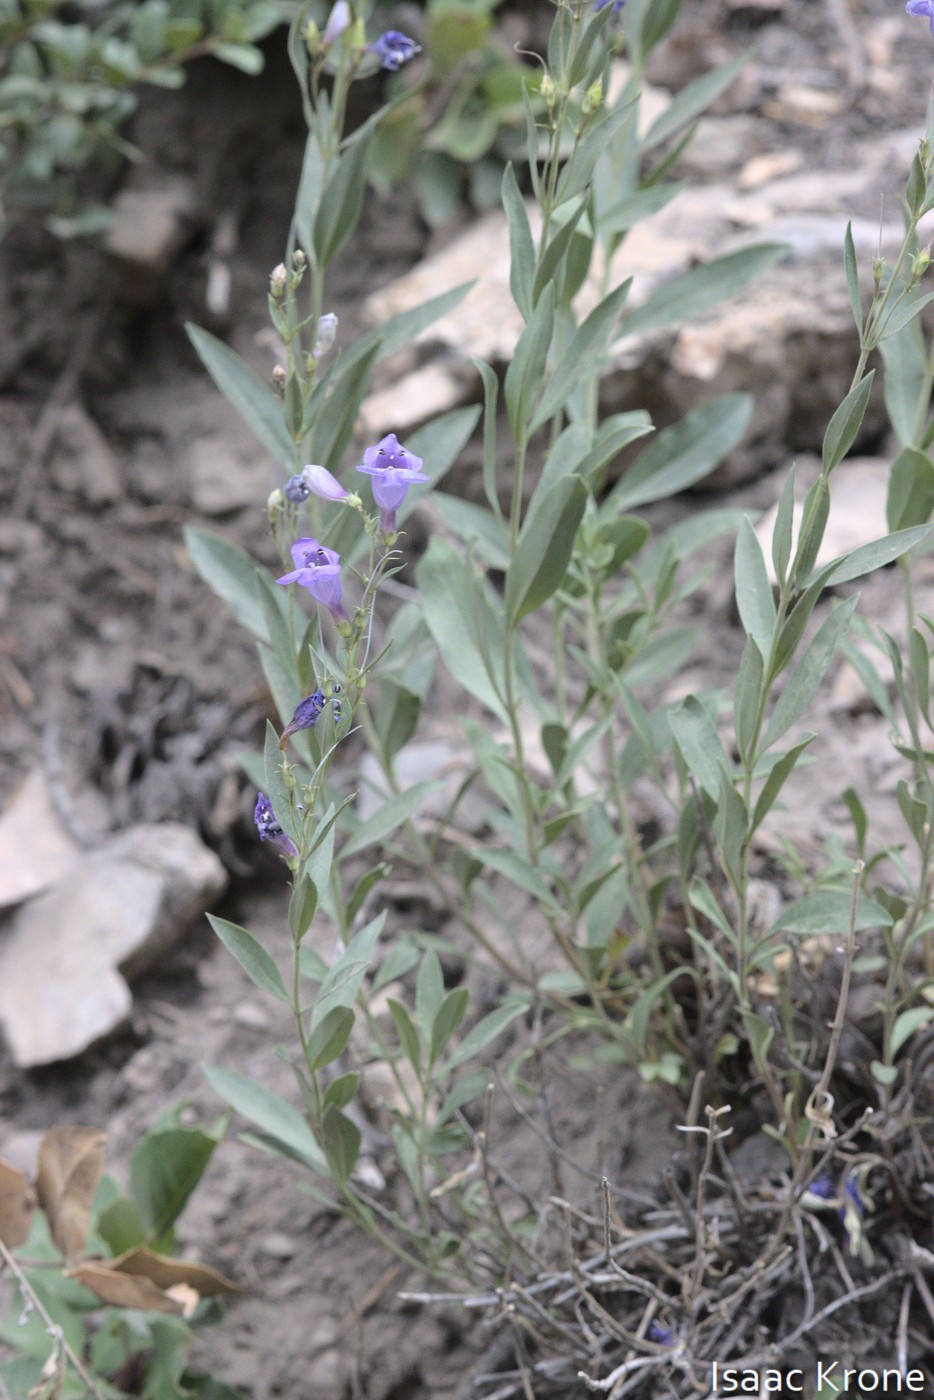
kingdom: Plantae
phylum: Tracheophyta
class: Magnoliopsida
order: Lamiales
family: Plantaginaceae
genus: Penstemon
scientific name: Penstemon platyphyllus
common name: Broadleaf penstemon
